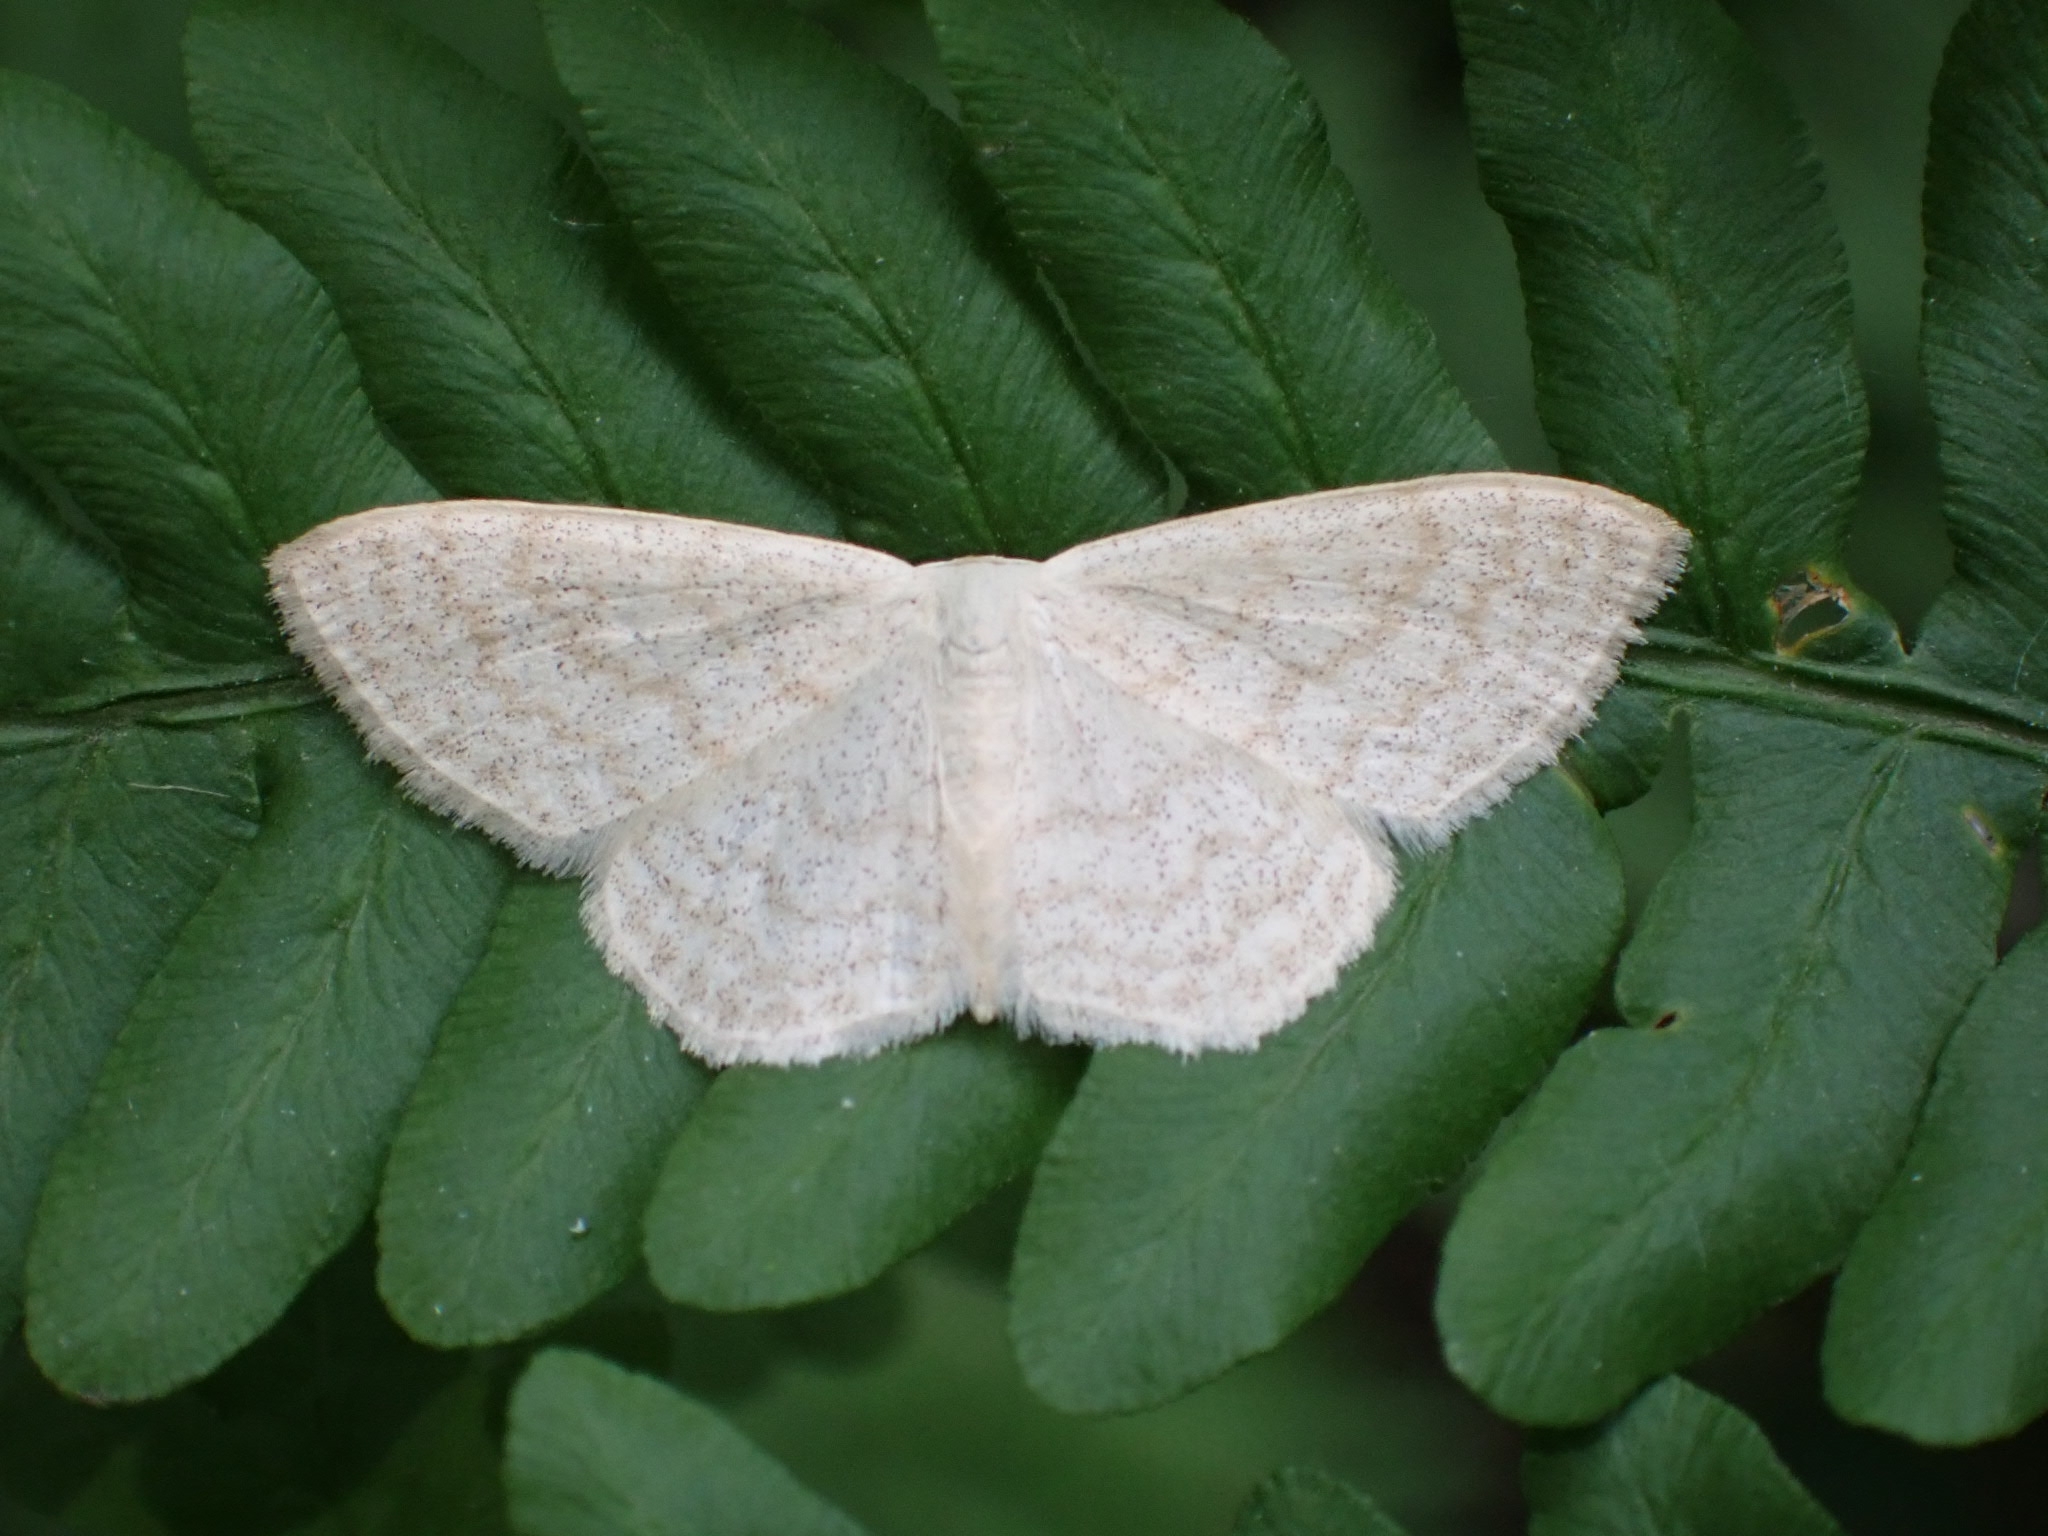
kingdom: Animalia
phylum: Arthropoda
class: Insecta
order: Lepidoptera
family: Geometridae
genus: Scopula
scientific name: Scopula floslactata
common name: Cream wave
